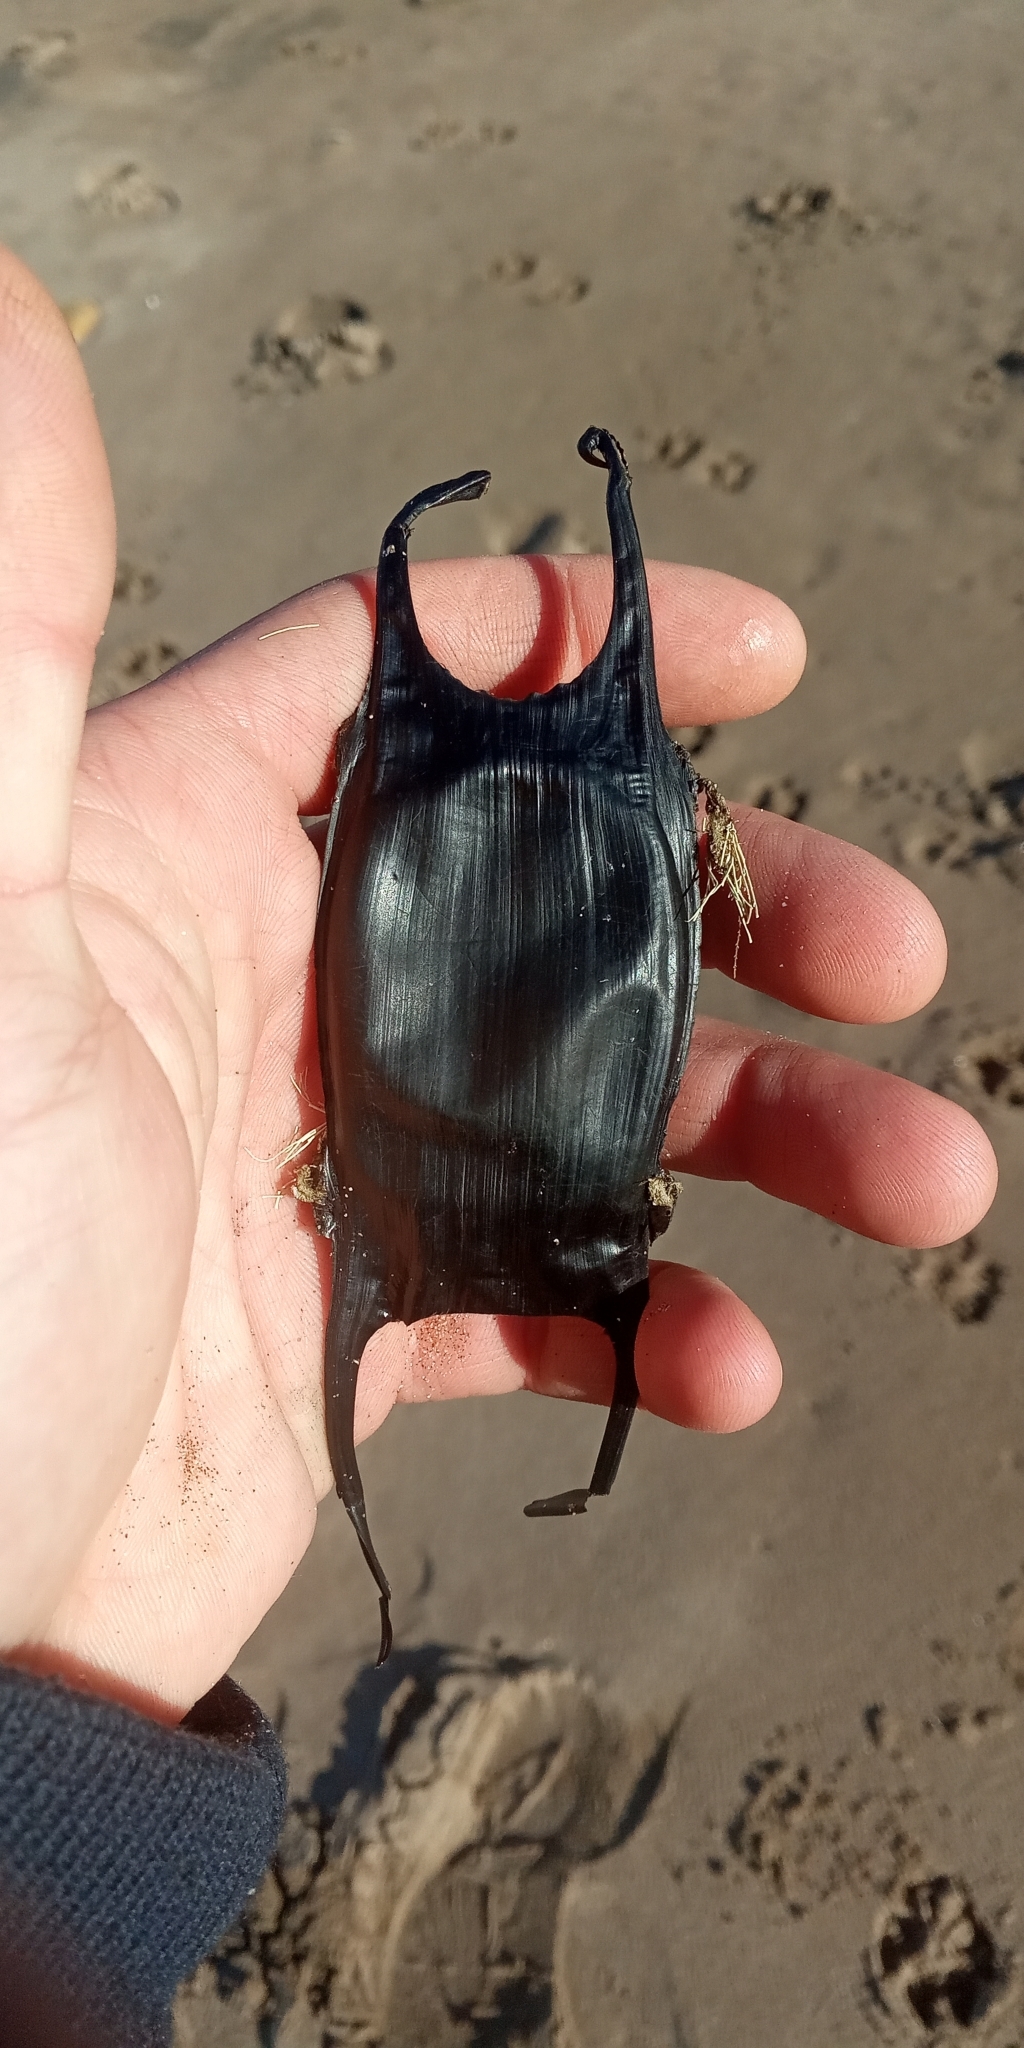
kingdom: Animalia
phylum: Chordata
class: Elasmobranchii
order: Rajiformes
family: Arhynchobatidae
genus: Rioraja
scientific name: Rioraja agassizii
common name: Rio skate
